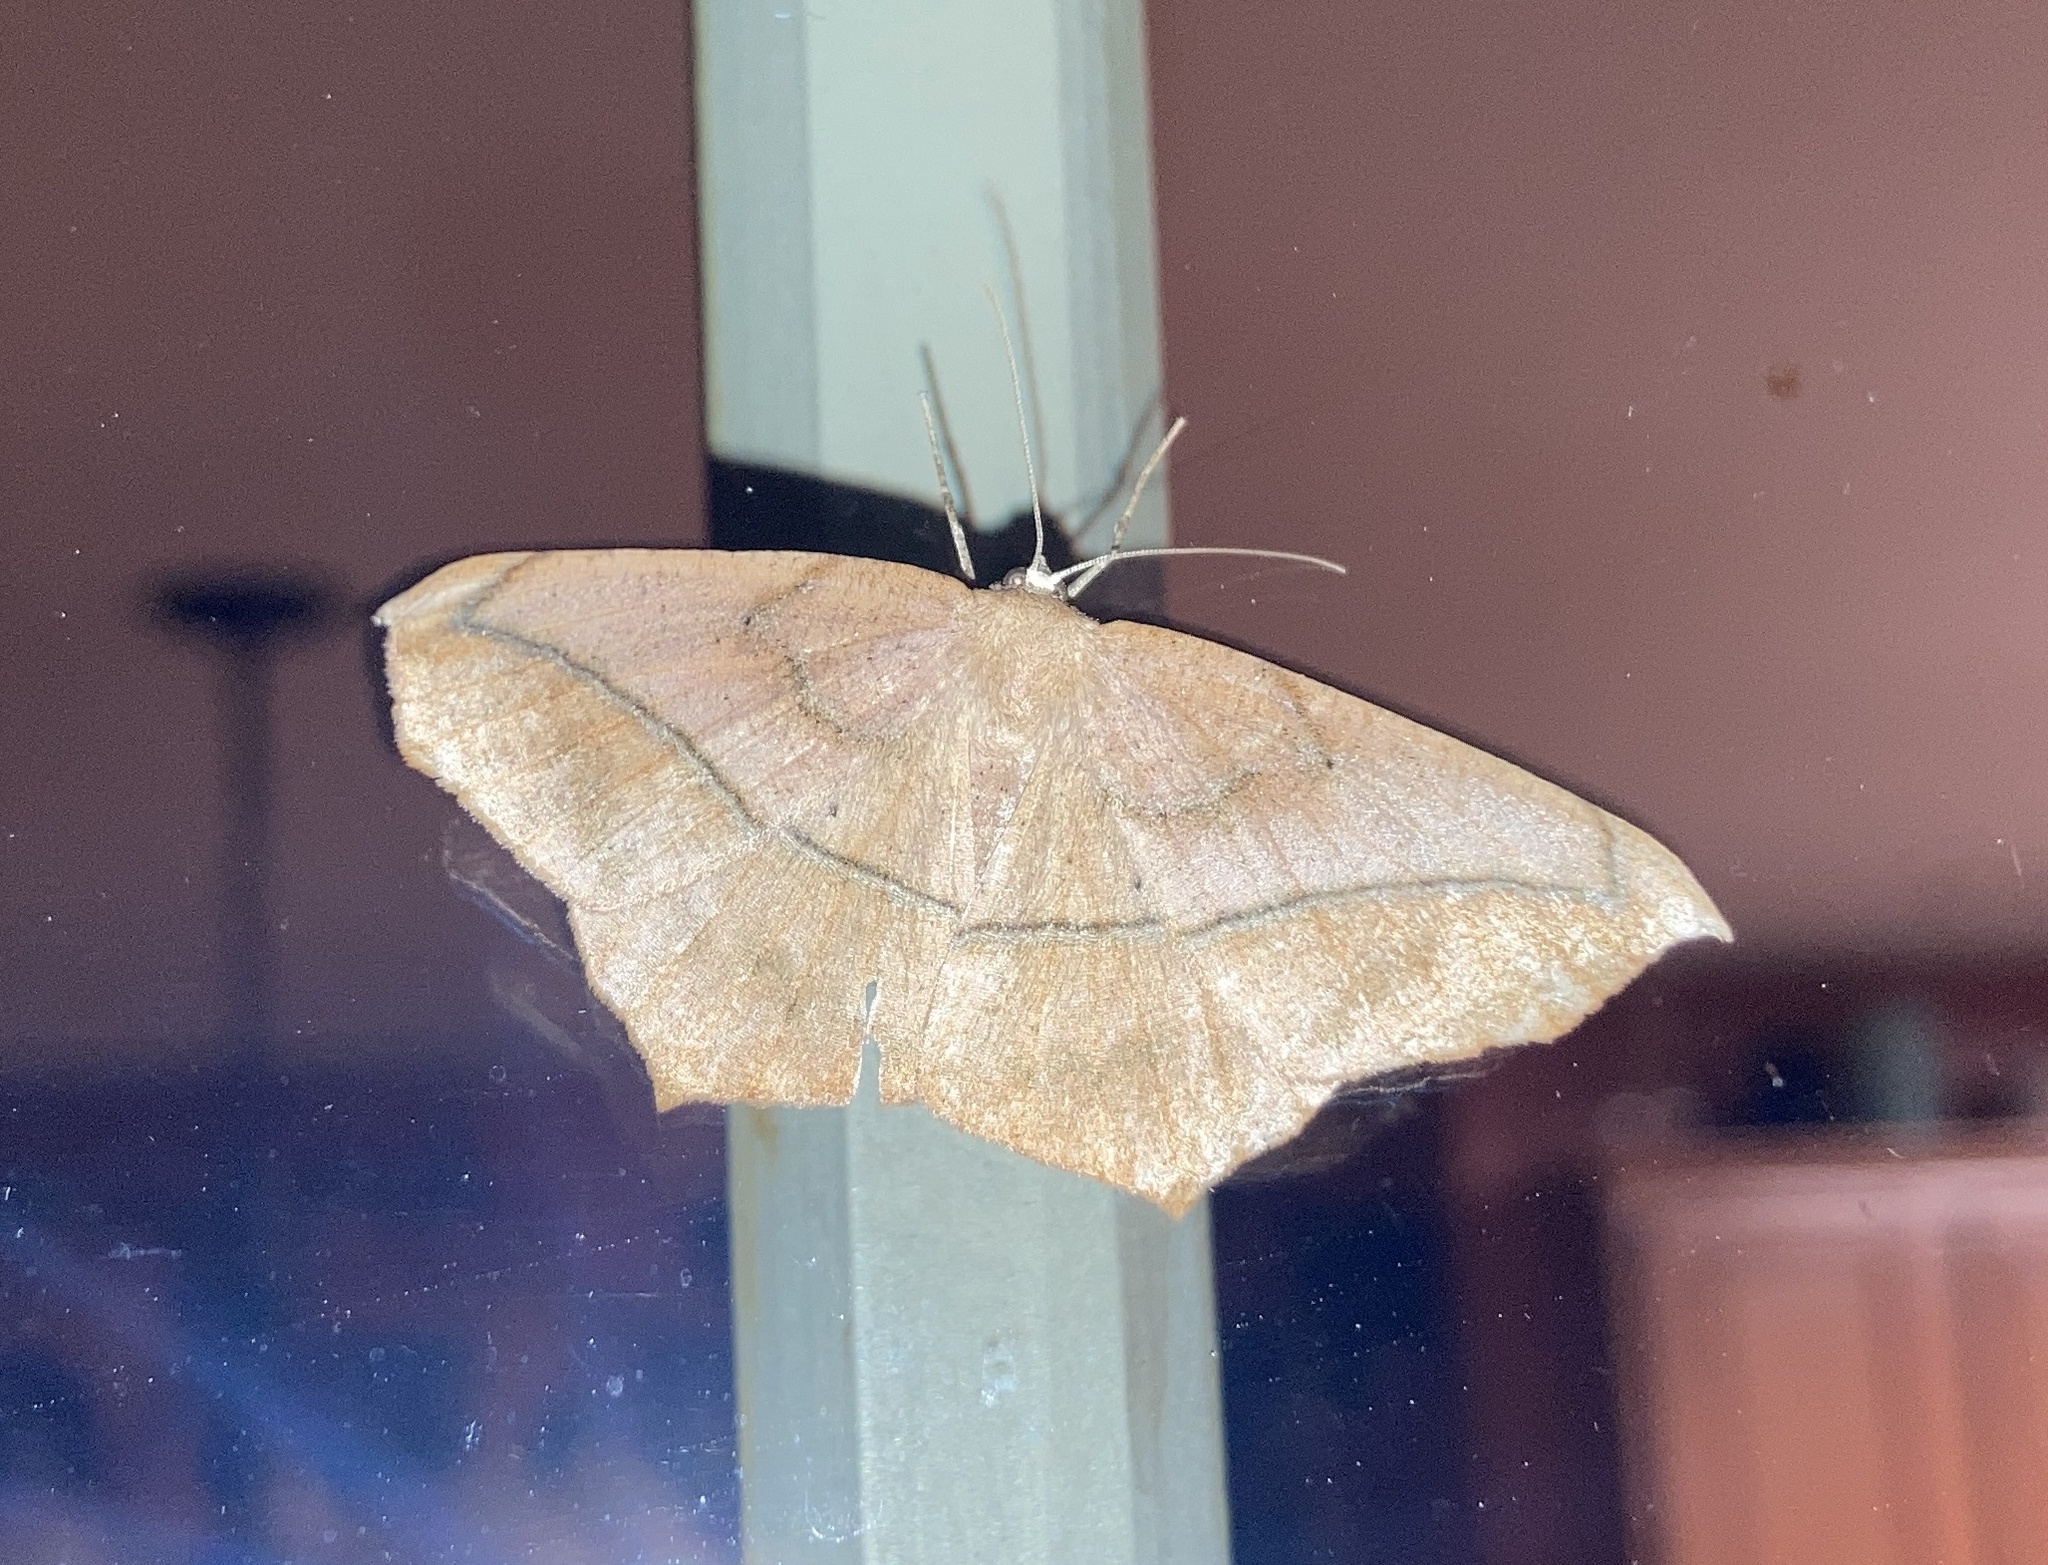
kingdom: Animalia
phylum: Arthropoda
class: Insecta
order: Lepidoptera
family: Geometridae
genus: Prochoerodes
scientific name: Prochoerodes lineola
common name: Large maple spanworm
